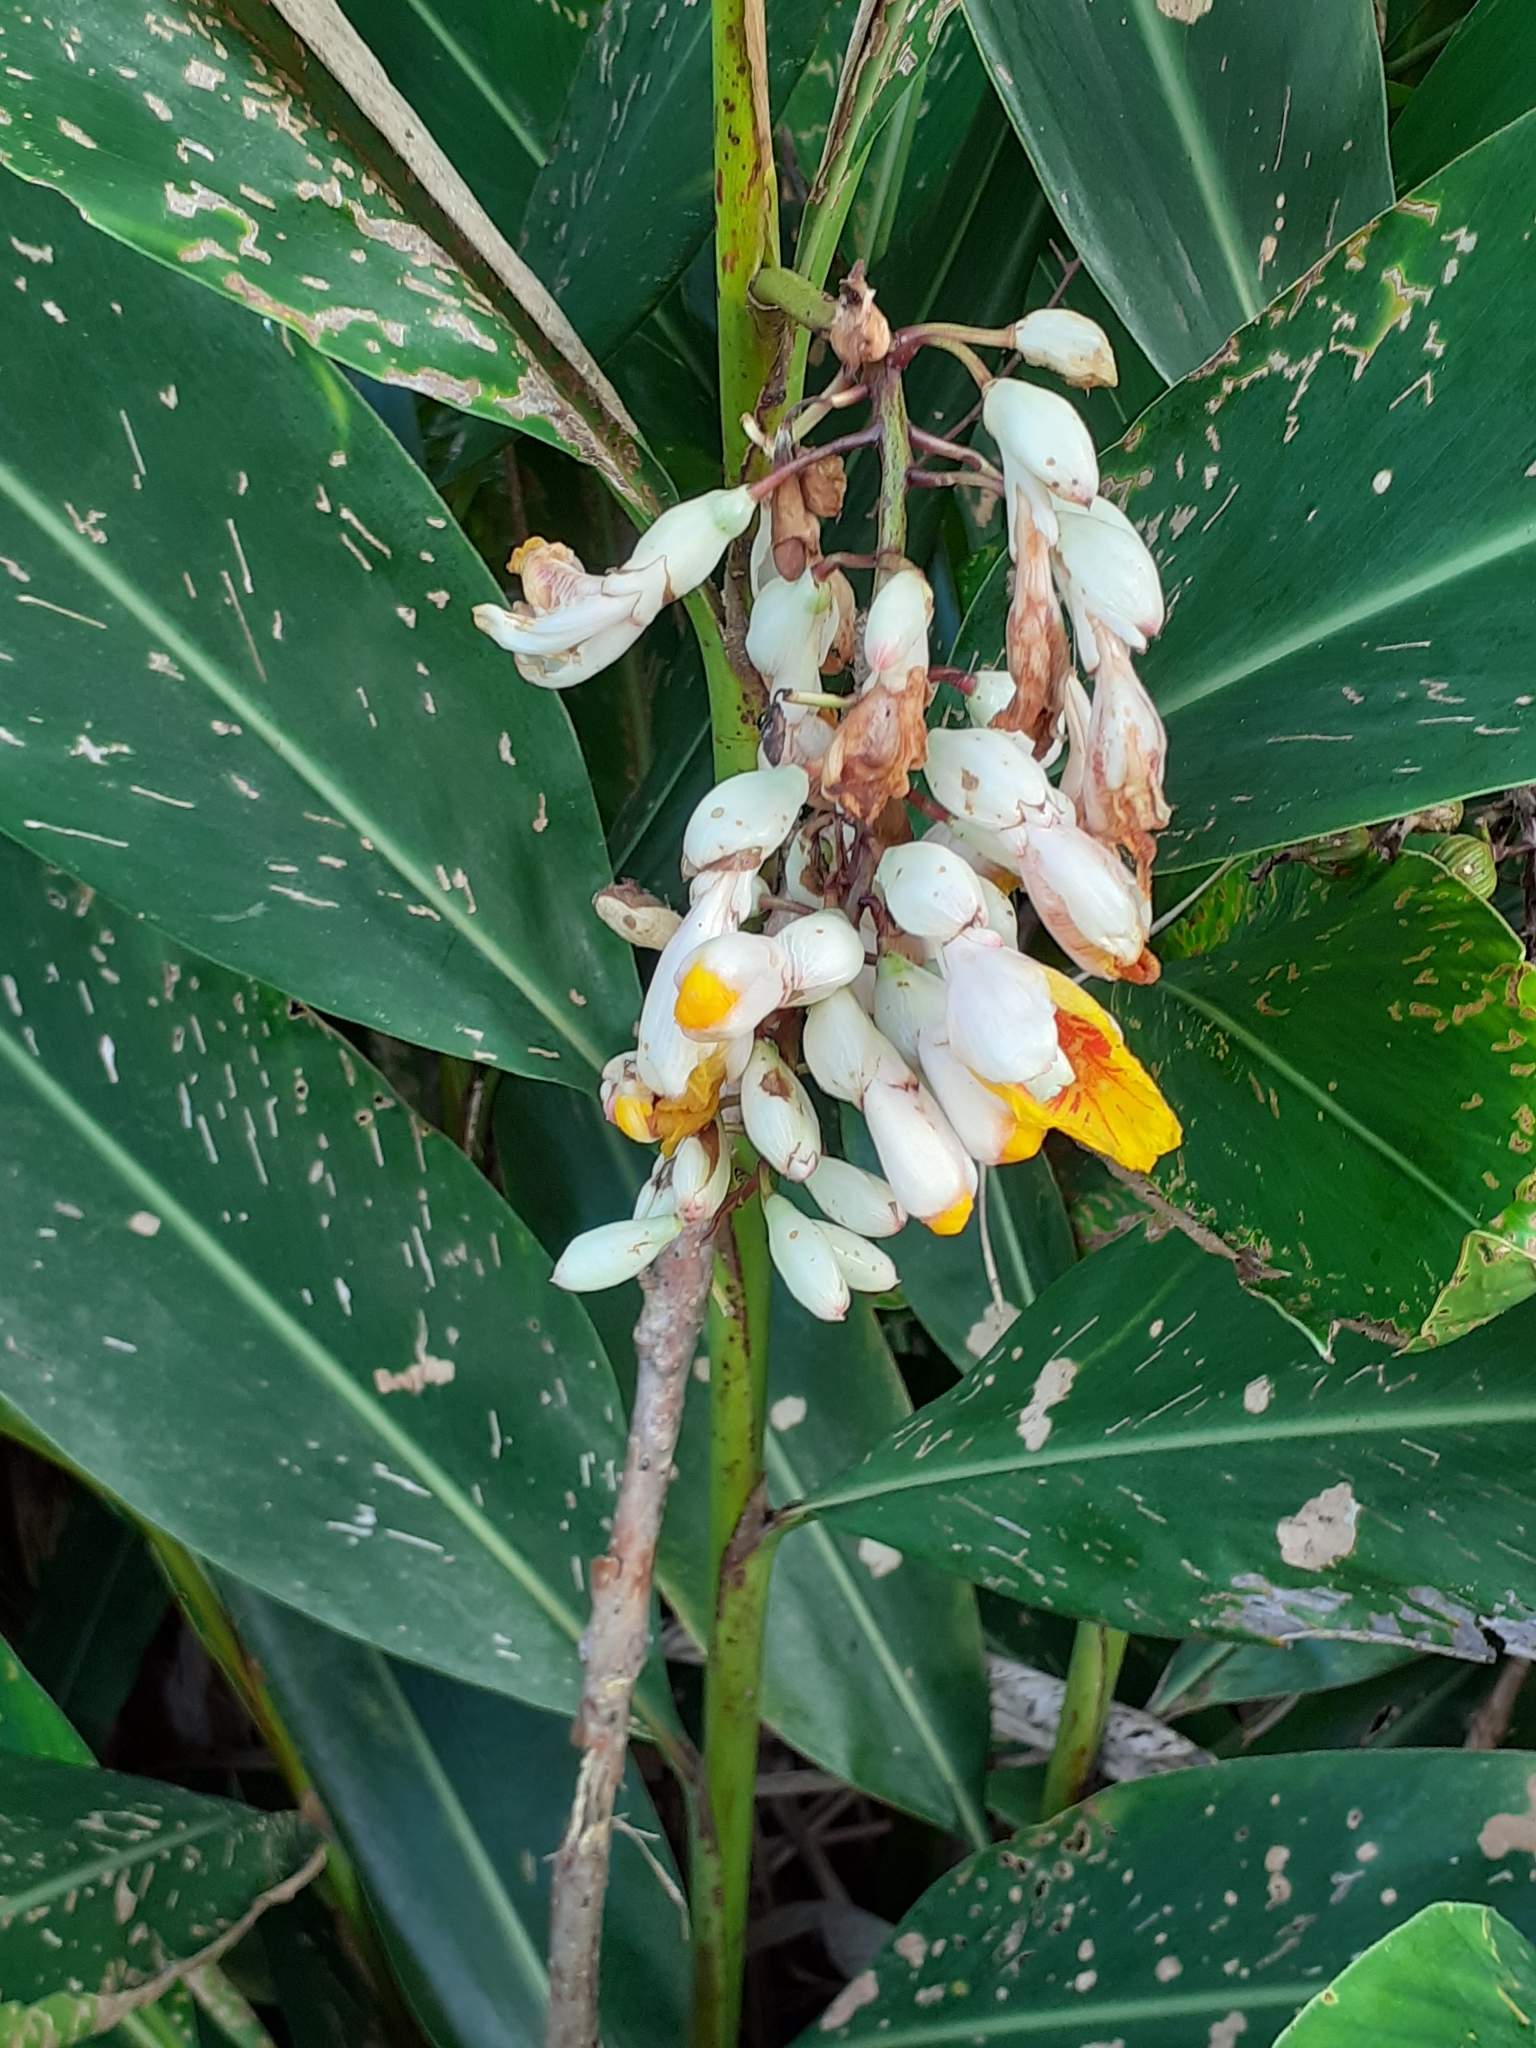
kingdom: Plantae
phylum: Tracheophyta
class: Liliopsida
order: Zingiberales
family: Zingiberaceae
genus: Alpinia
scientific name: Alpinia zerumbet
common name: Shellplant
